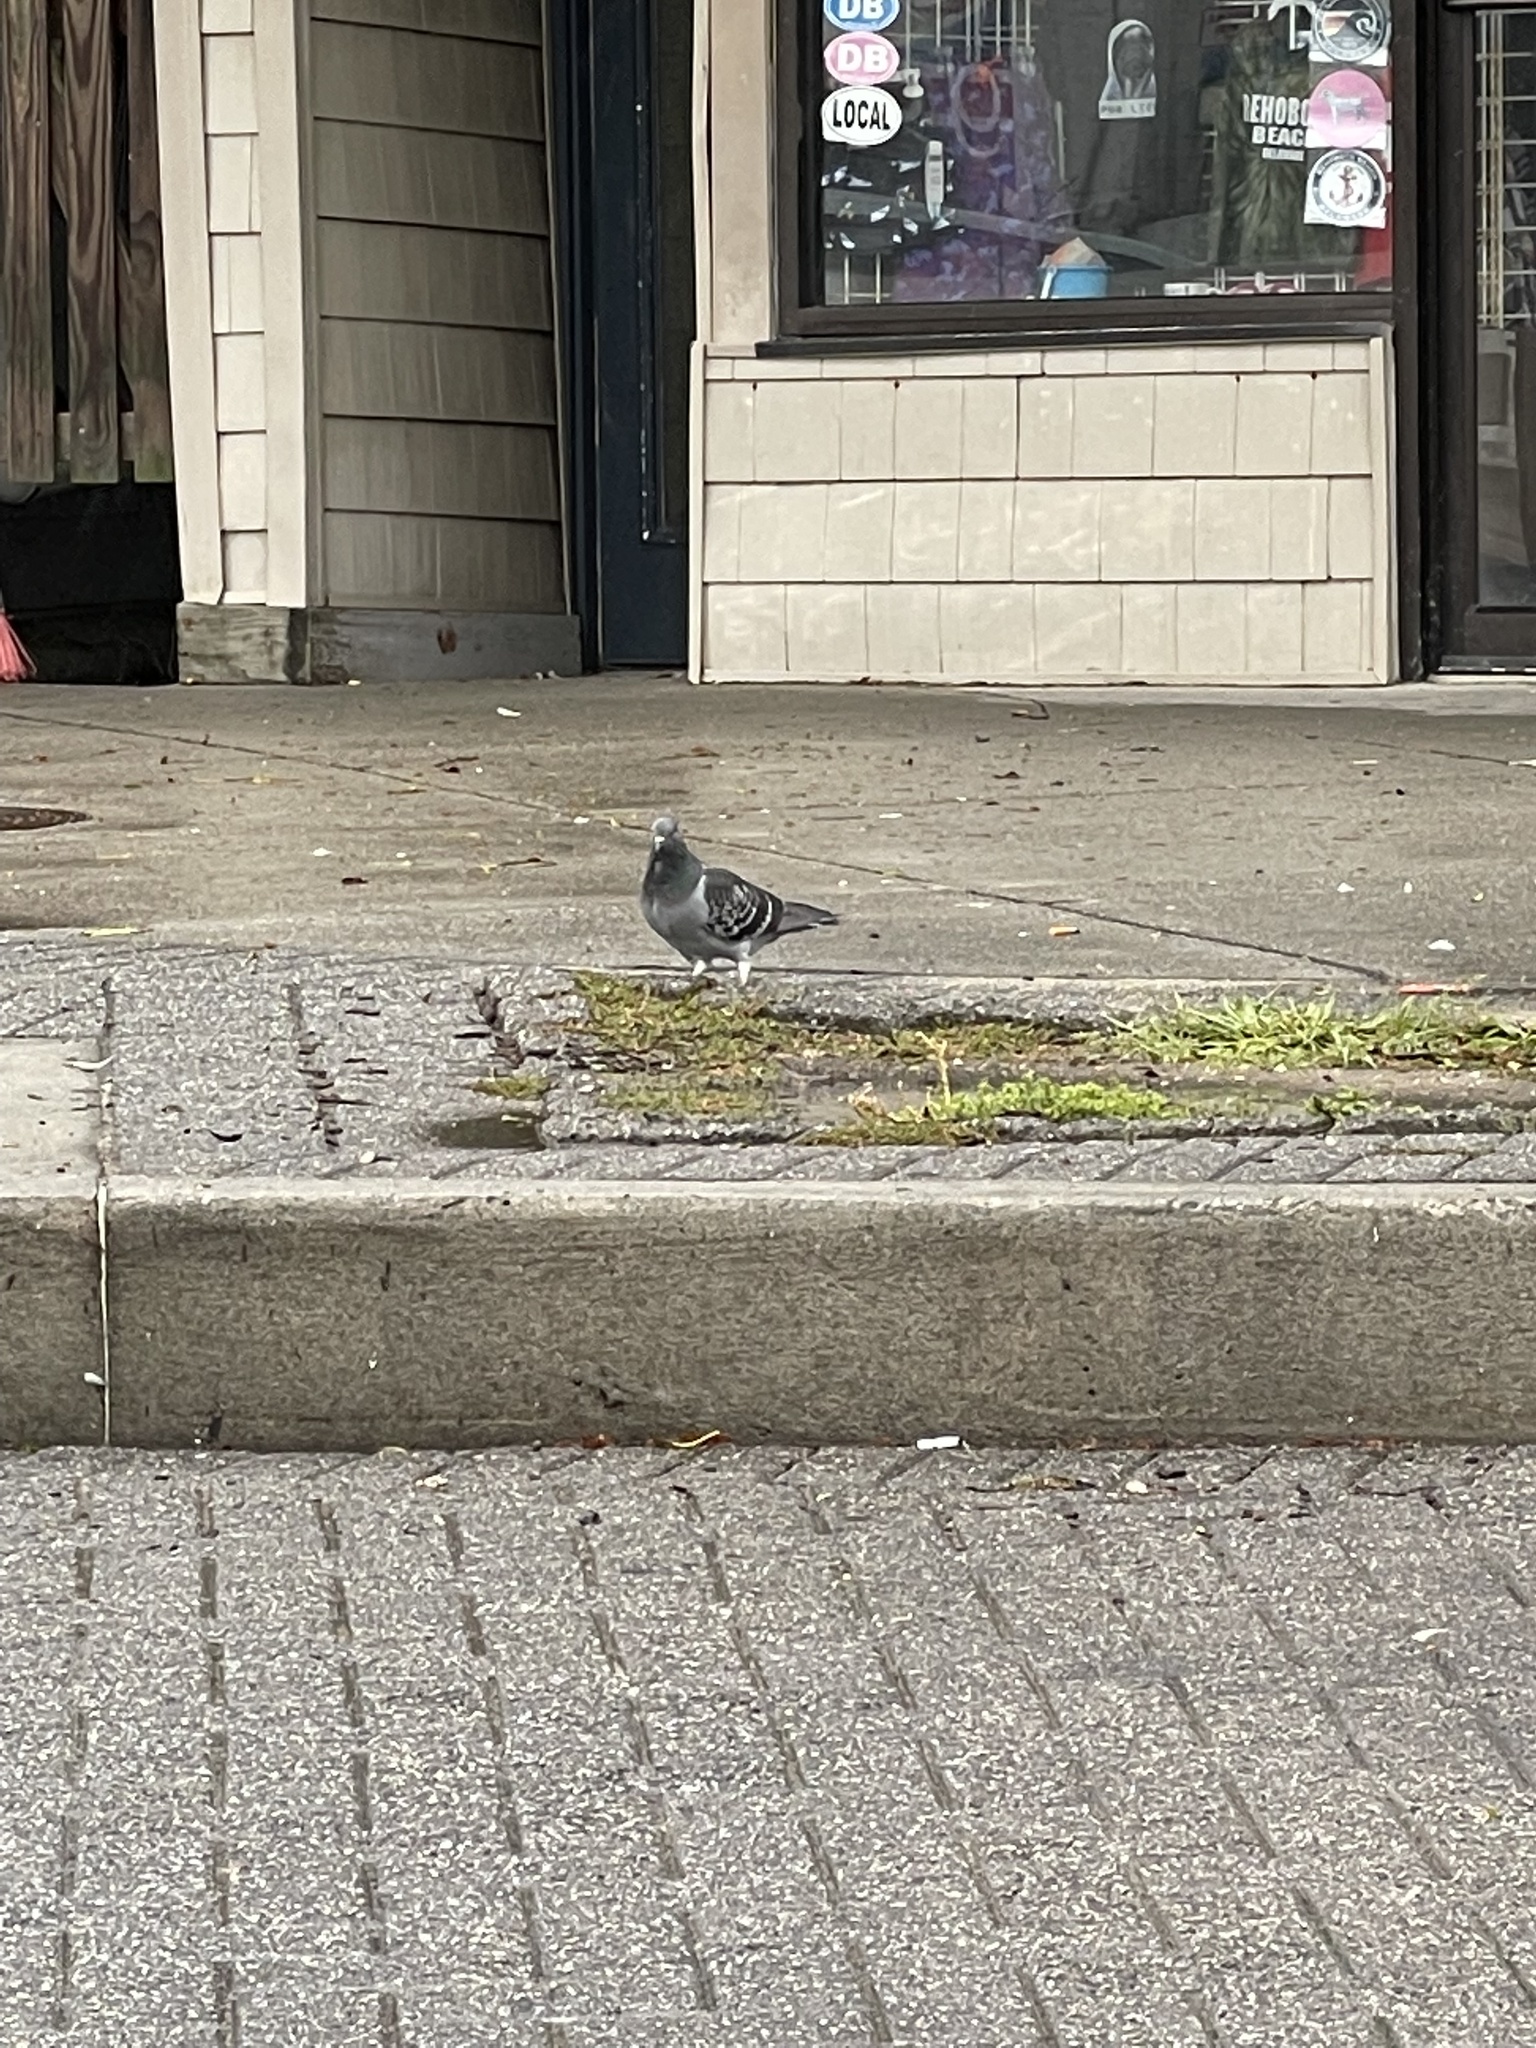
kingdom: Animalia
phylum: Chordata
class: Aves
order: Columbiformes
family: Columbidae
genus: Columba
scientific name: Columba livia
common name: Rock pigeon
